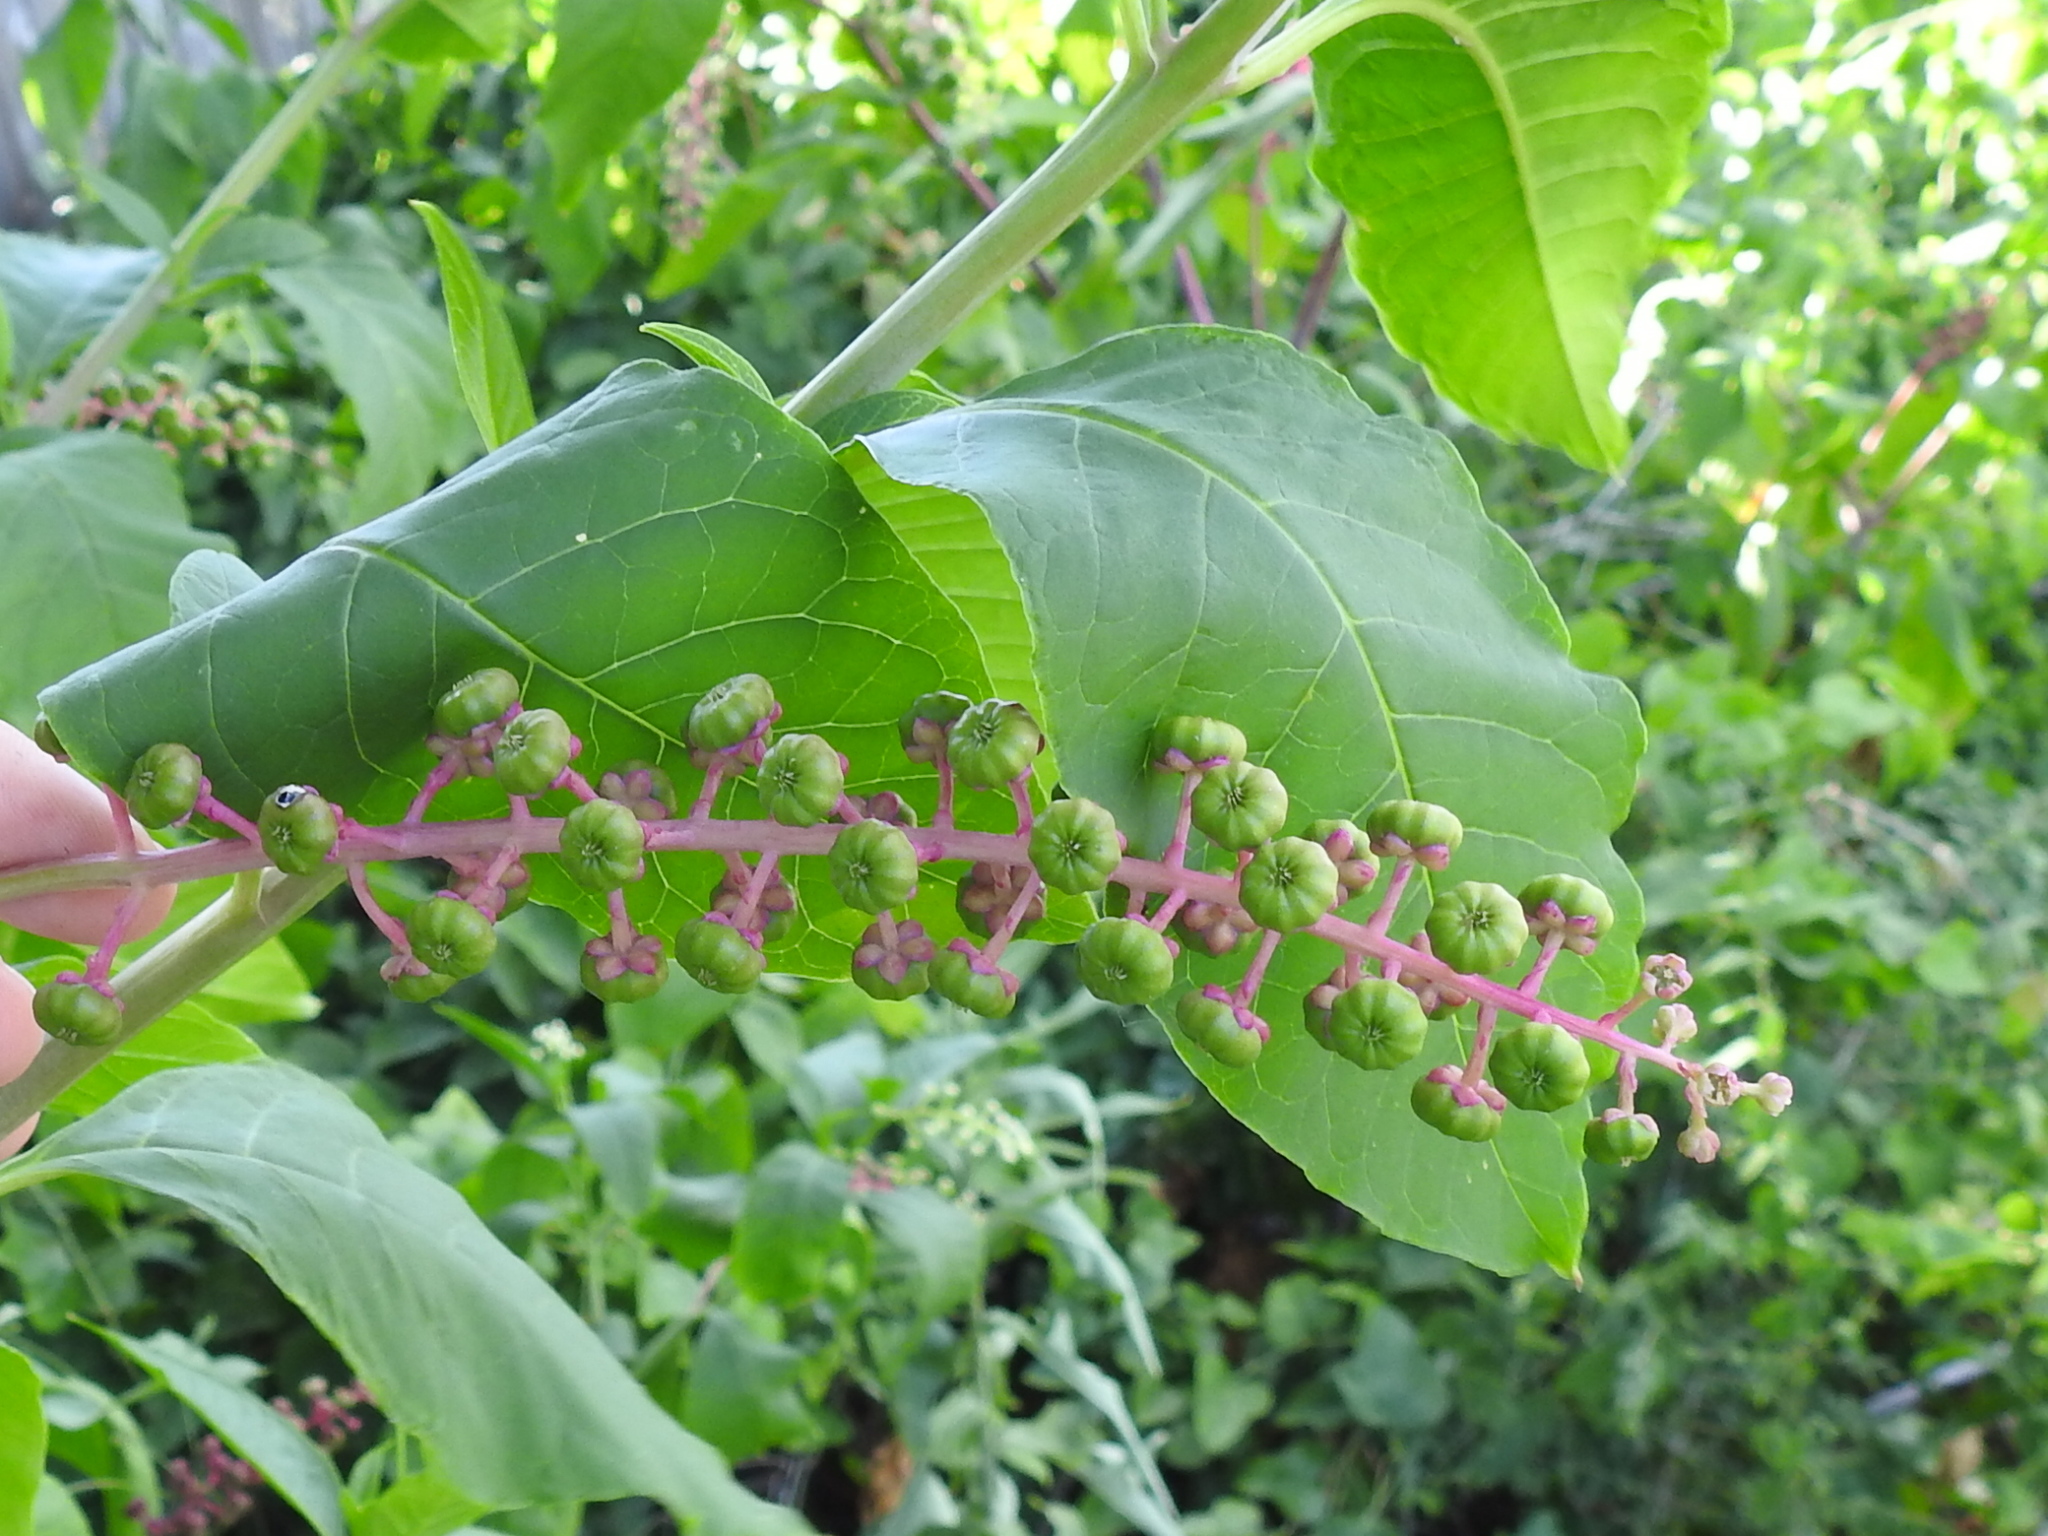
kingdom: Plantae
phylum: Tracheophyta
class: Magnoliopsida
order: Caryophyllales
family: Phytolaccaceae
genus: Phytolacca
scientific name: Phytolacca americana
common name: American pokeweed
